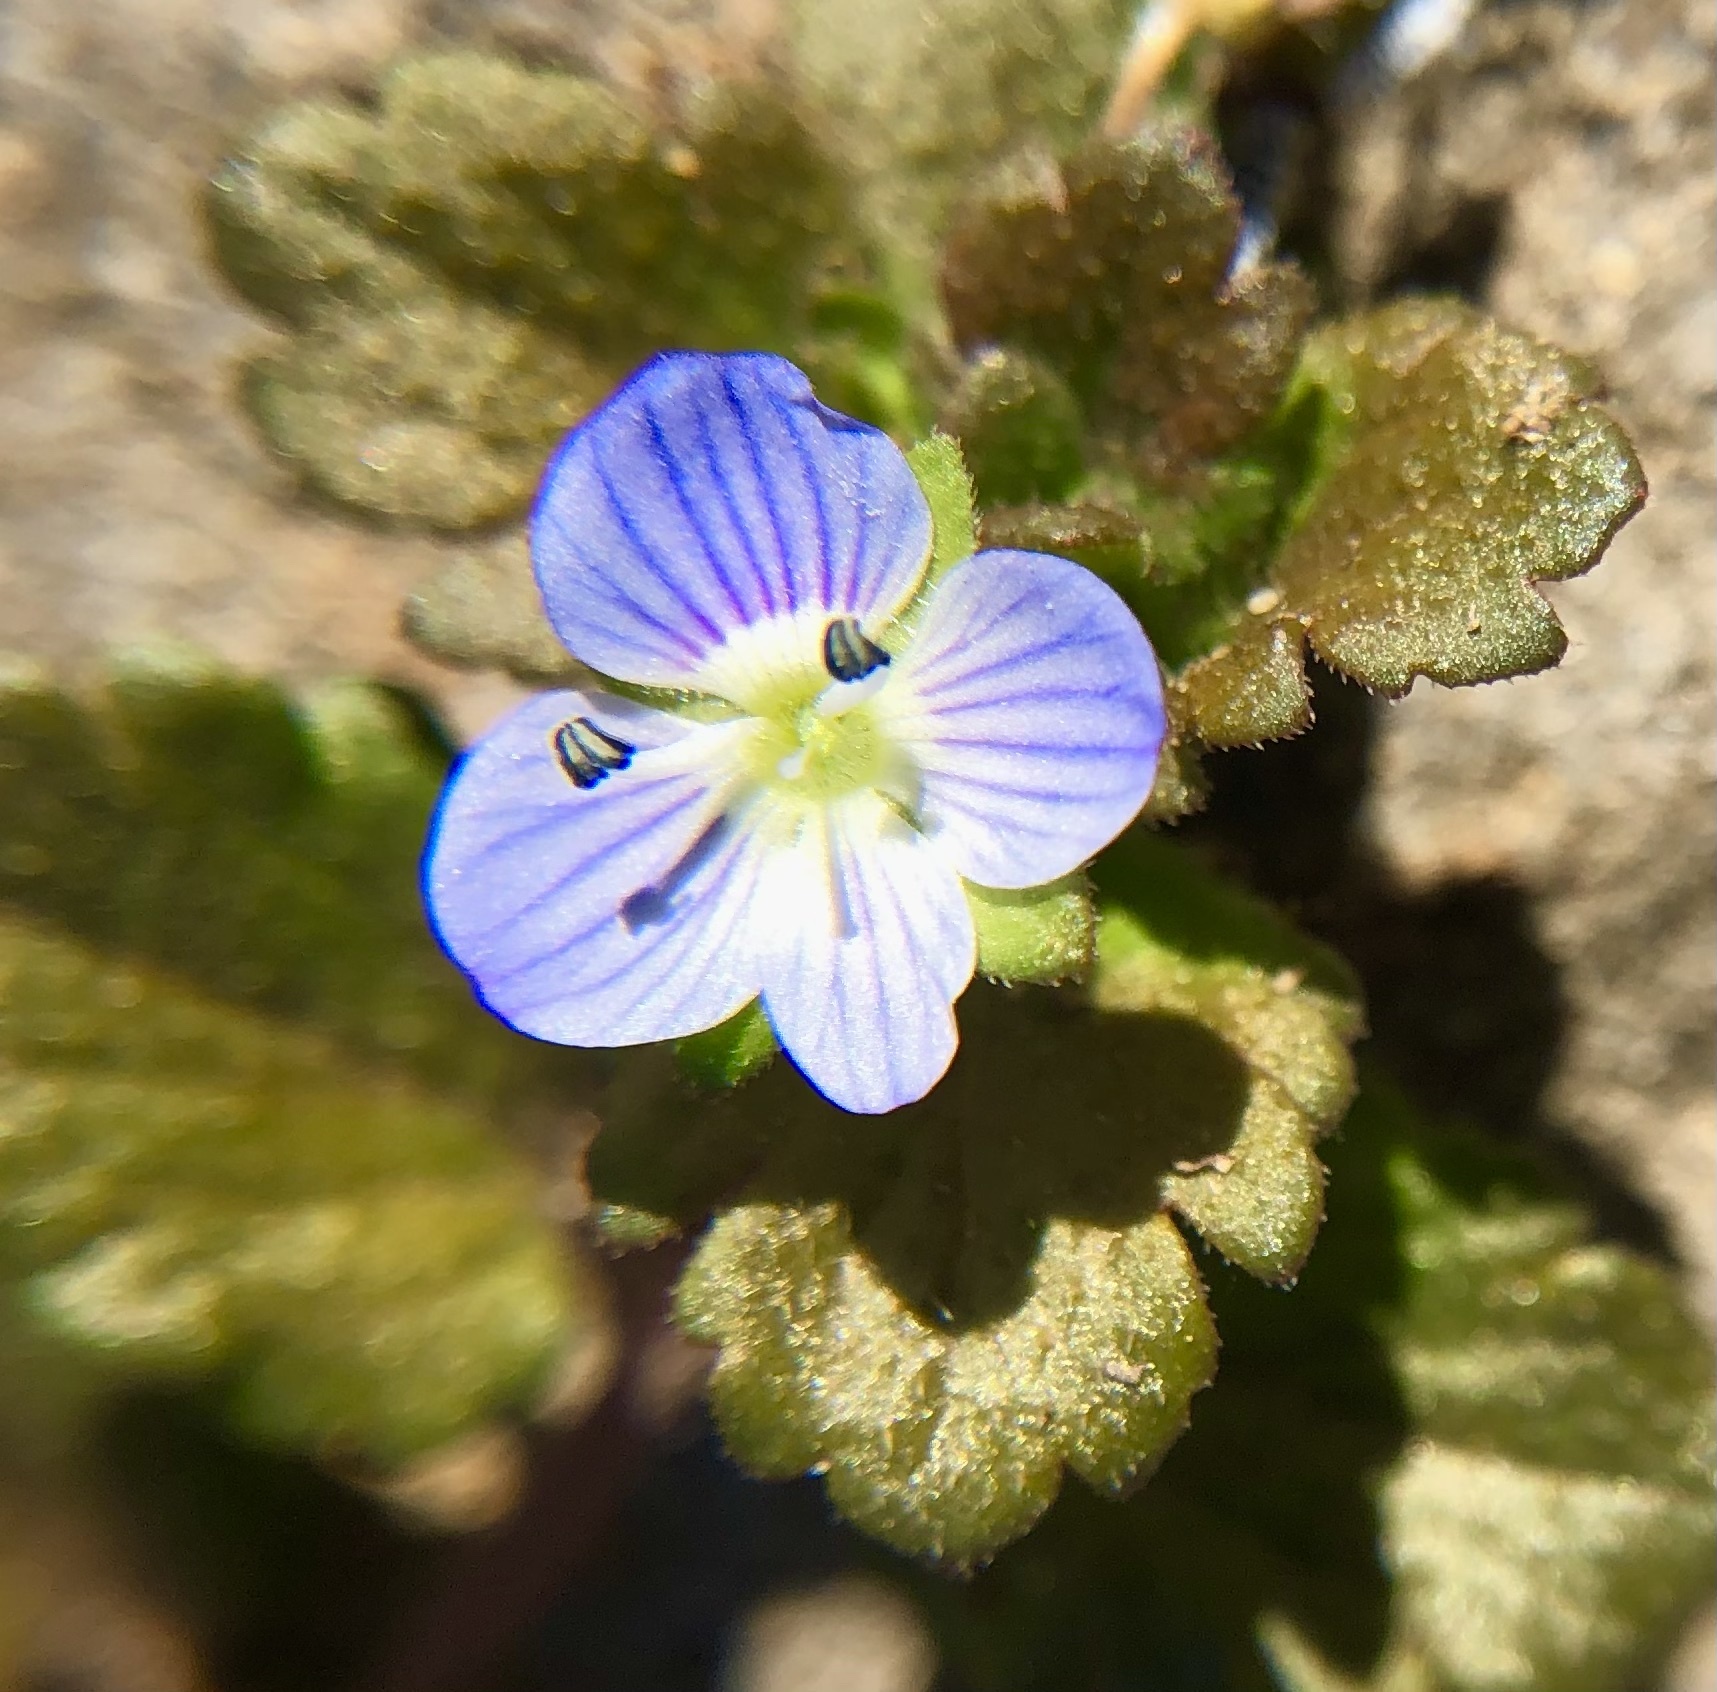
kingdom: Plantae
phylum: Tracheophyta
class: Magnoliopsida
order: Lamiales
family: Plantaginaceae
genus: Veronica
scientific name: Veronica persica
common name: Common field-speedwell
